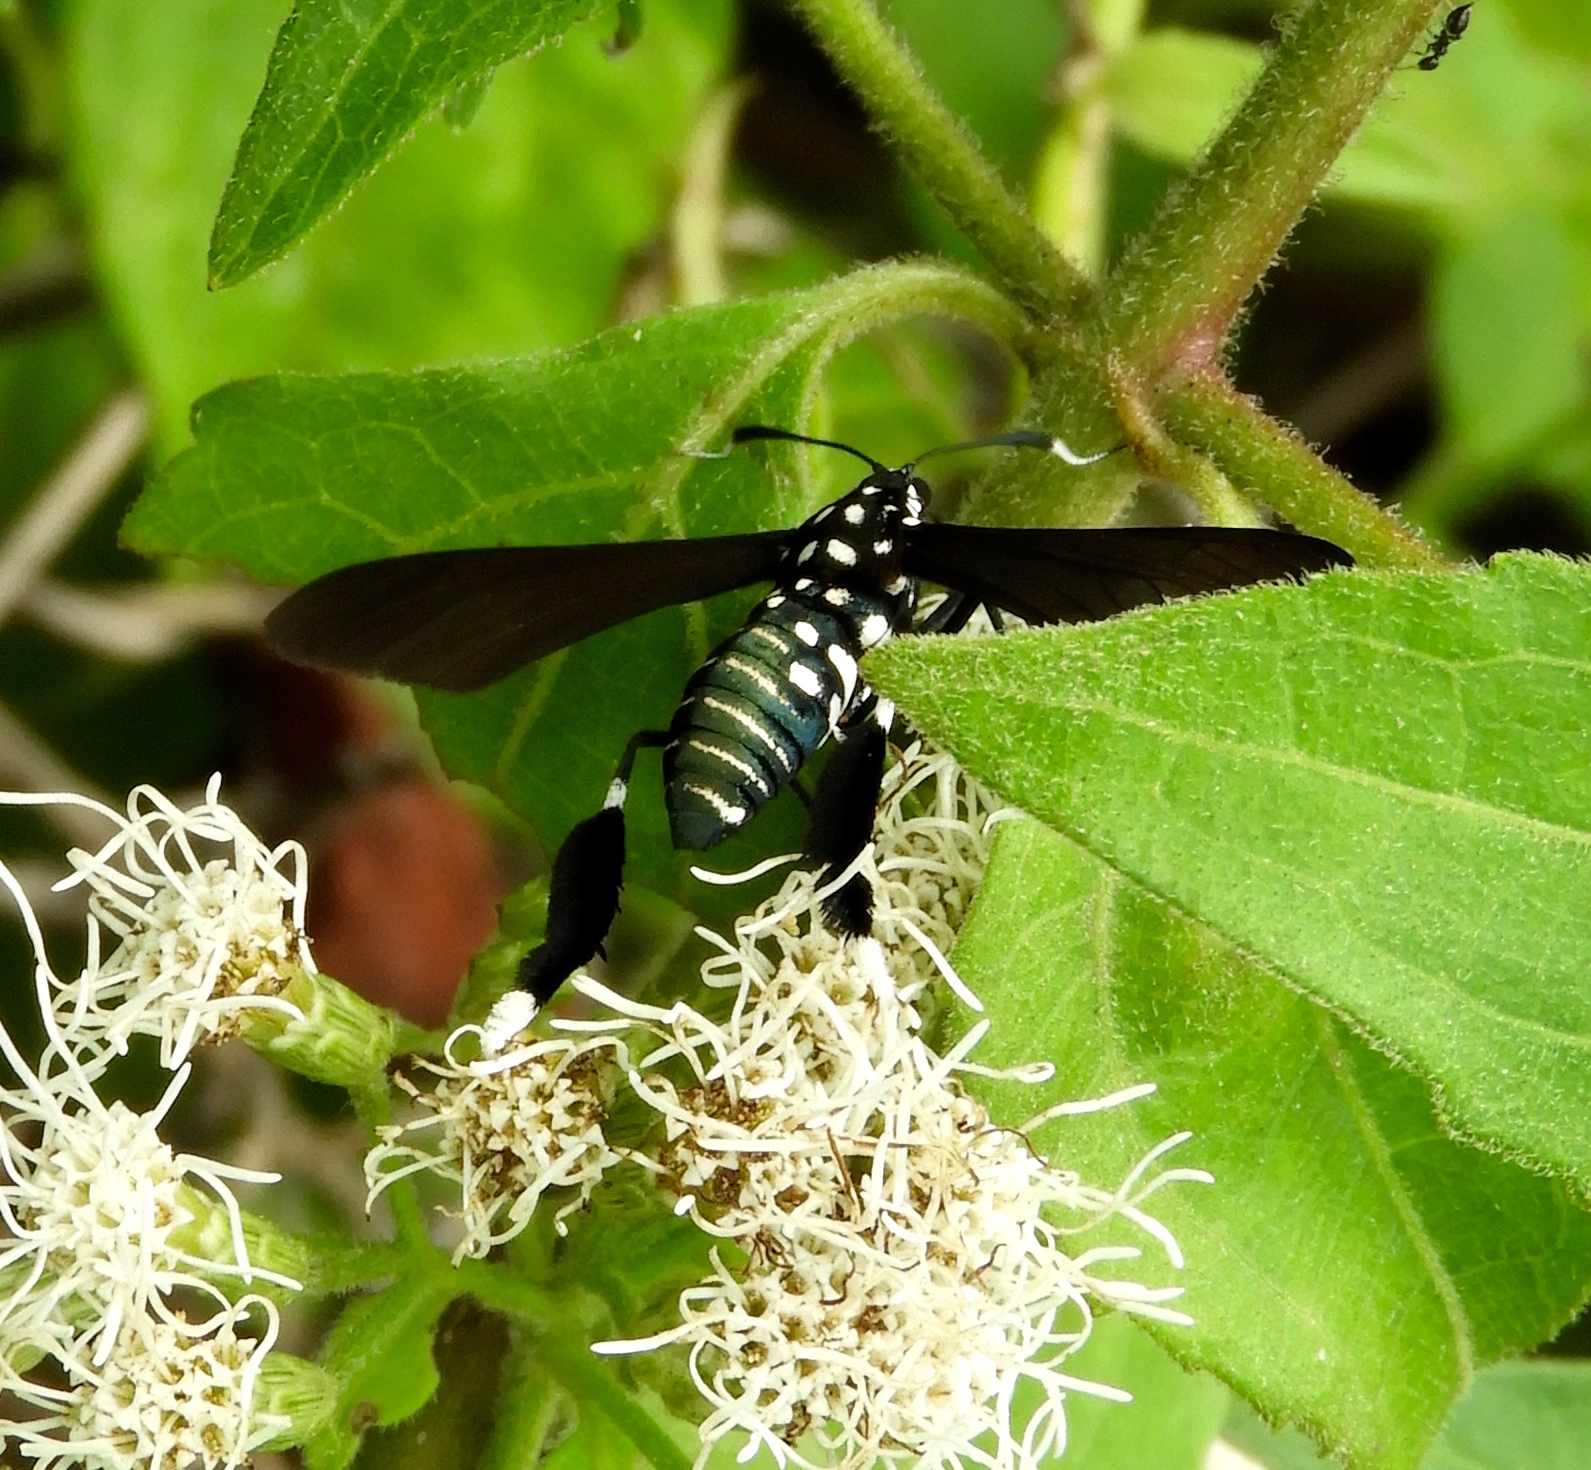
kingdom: Animalia
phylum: Arthropoda
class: Insecta
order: Lepidoptera
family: Erebidae
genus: Horama
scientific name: Horama plumipes
